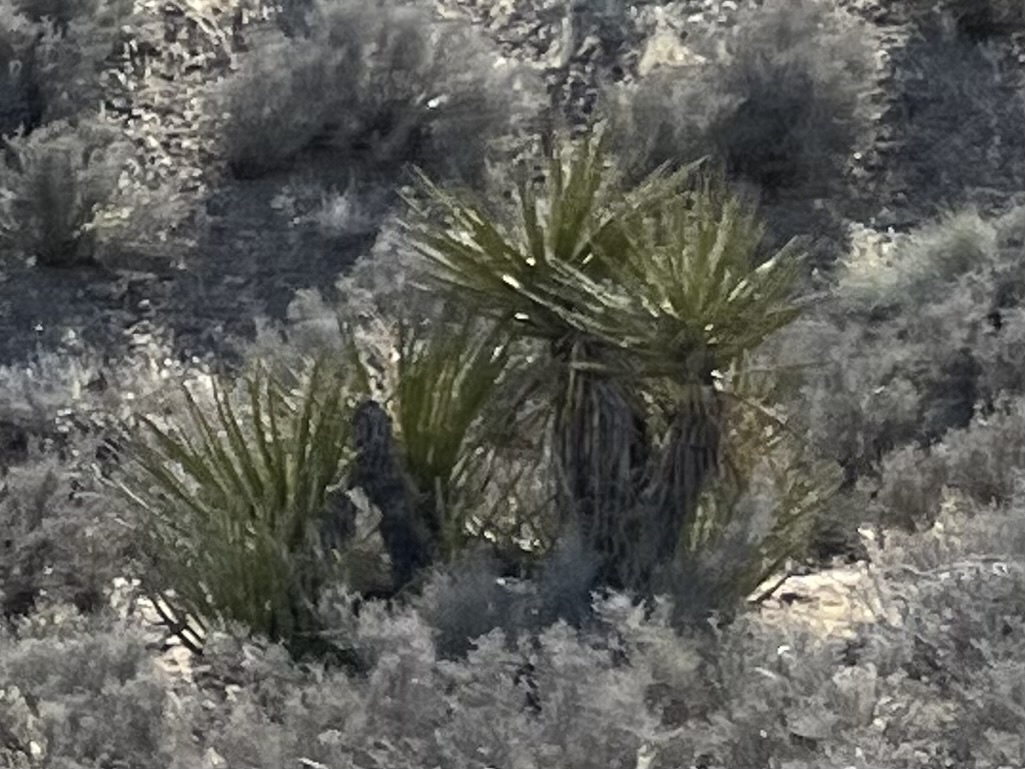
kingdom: Plantae
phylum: Tracheophyta
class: Liliopsida
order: Asparagales
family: Asparagaceae
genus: Yucca
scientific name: Yucca schidigera
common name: Mojave yucca
